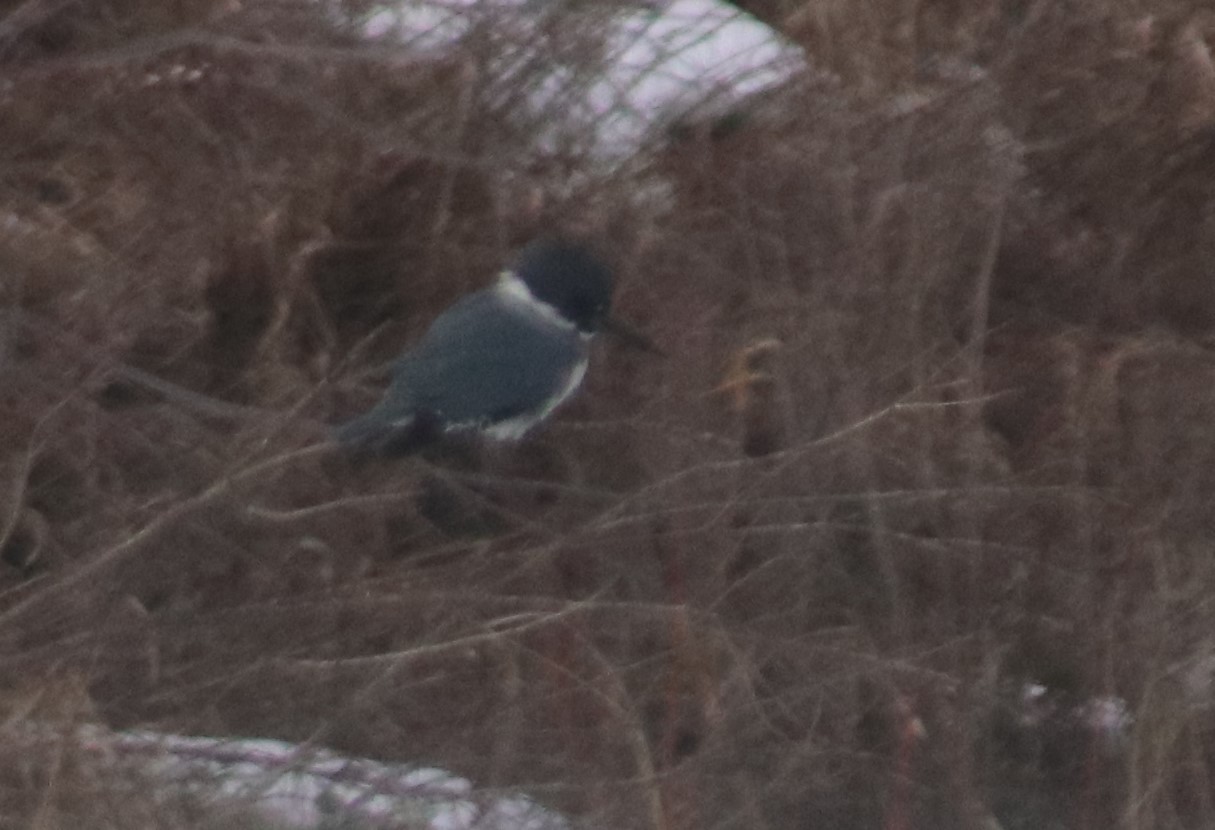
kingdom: Animalia
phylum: Chordata
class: Aves
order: Coraciiformes
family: Alcedinidae
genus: Megaceryle
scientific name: Megaceryle alcyon
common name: Belted kingfisher
